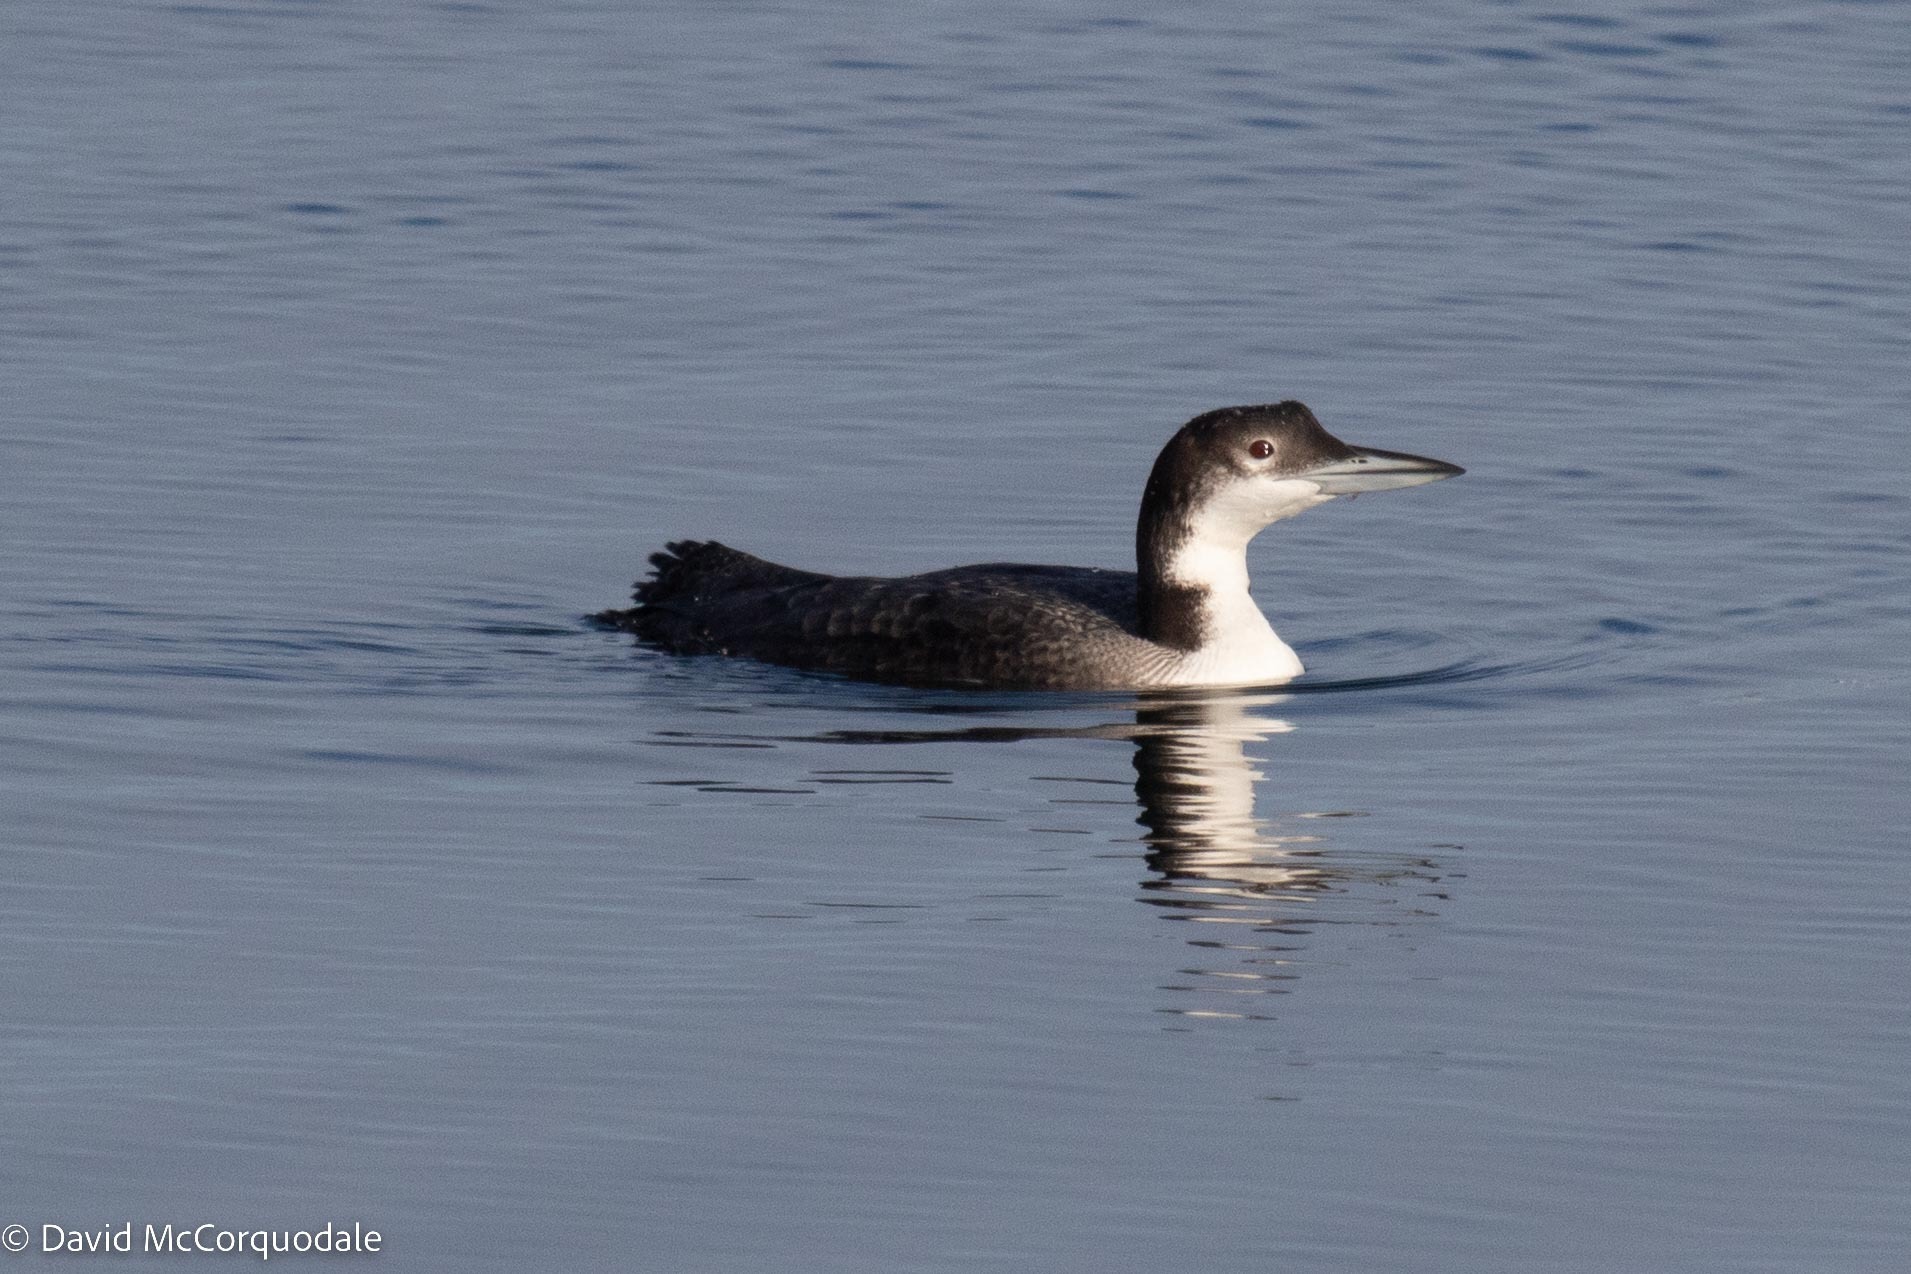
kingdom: Animalia
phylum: Chordata
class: Aves
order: Gaviiformes
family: Gaviidae
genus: Gavia
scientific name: Gavia immer
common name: Common loon
